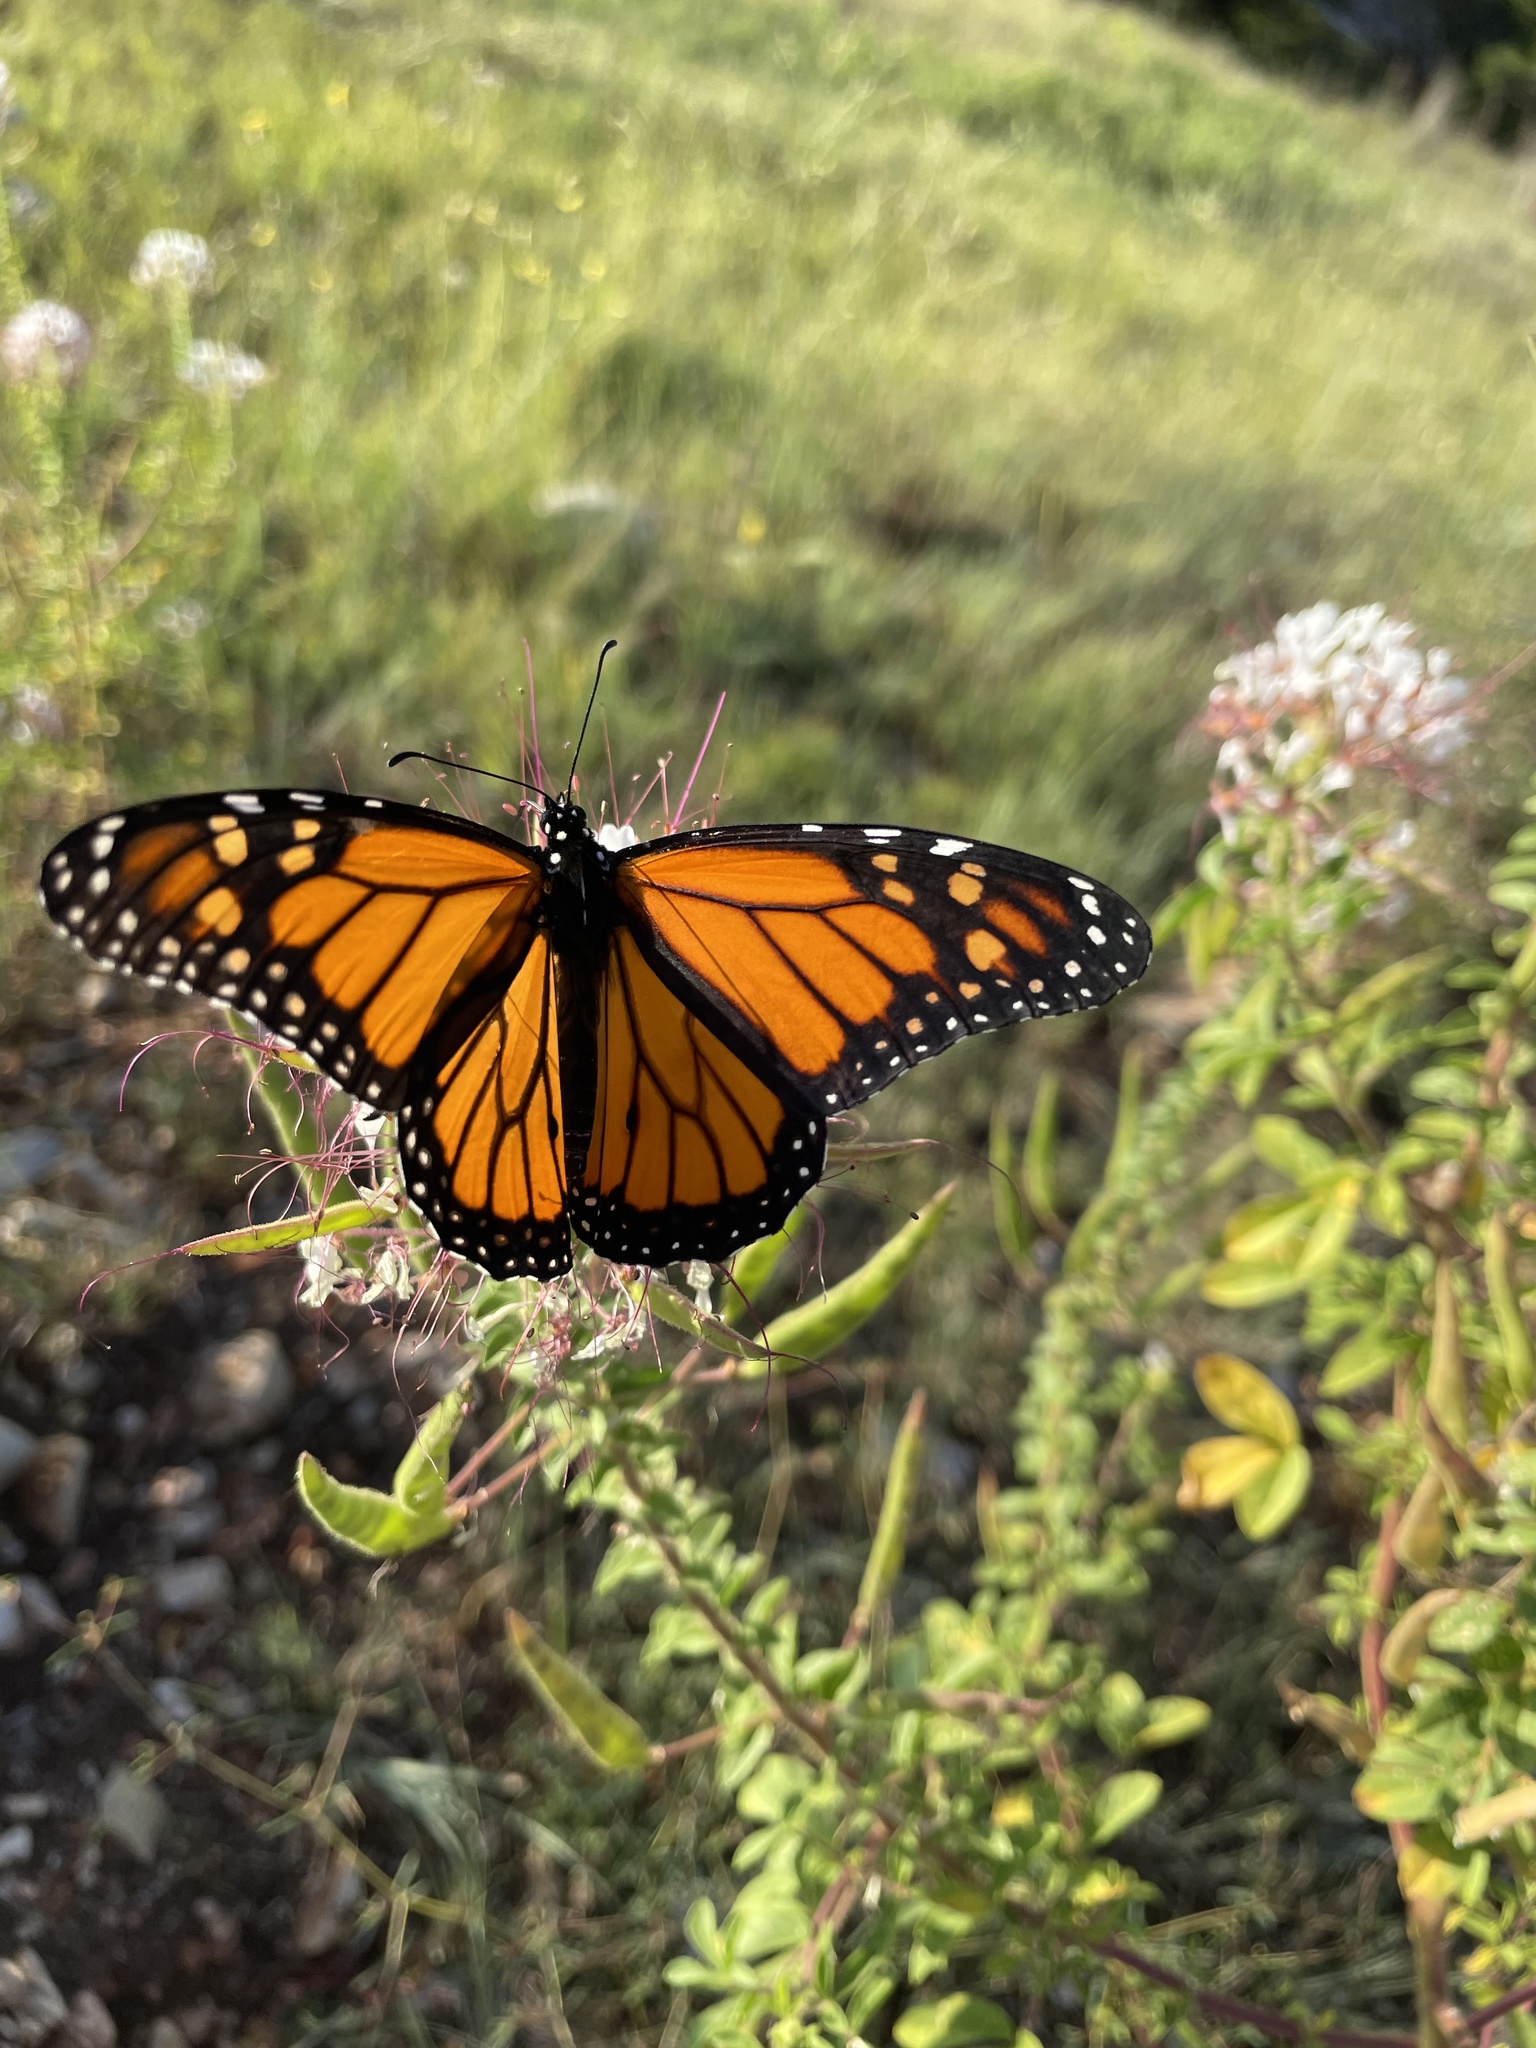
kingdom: Animalia
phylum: Arthropoda
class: Insecta
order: Lepidoptera
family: Nymphalidae
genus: Danaus
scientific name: Danaus plexippus
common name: Monarch
